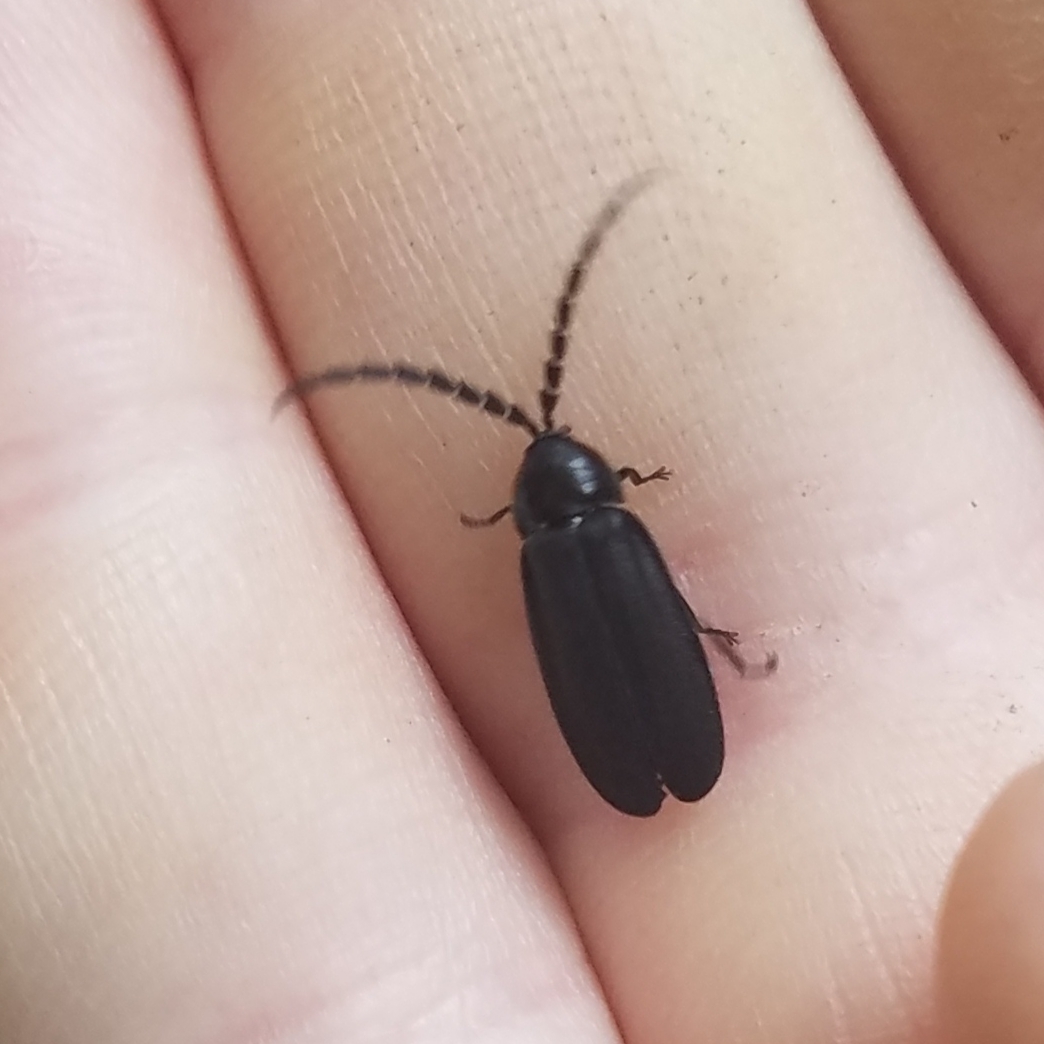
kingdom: Animalia
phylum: Arthropoda
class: Insecta
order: Coleoptera
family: Lampyridae
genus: Lucidota
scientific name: Lucidota atra
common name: Black firefly
